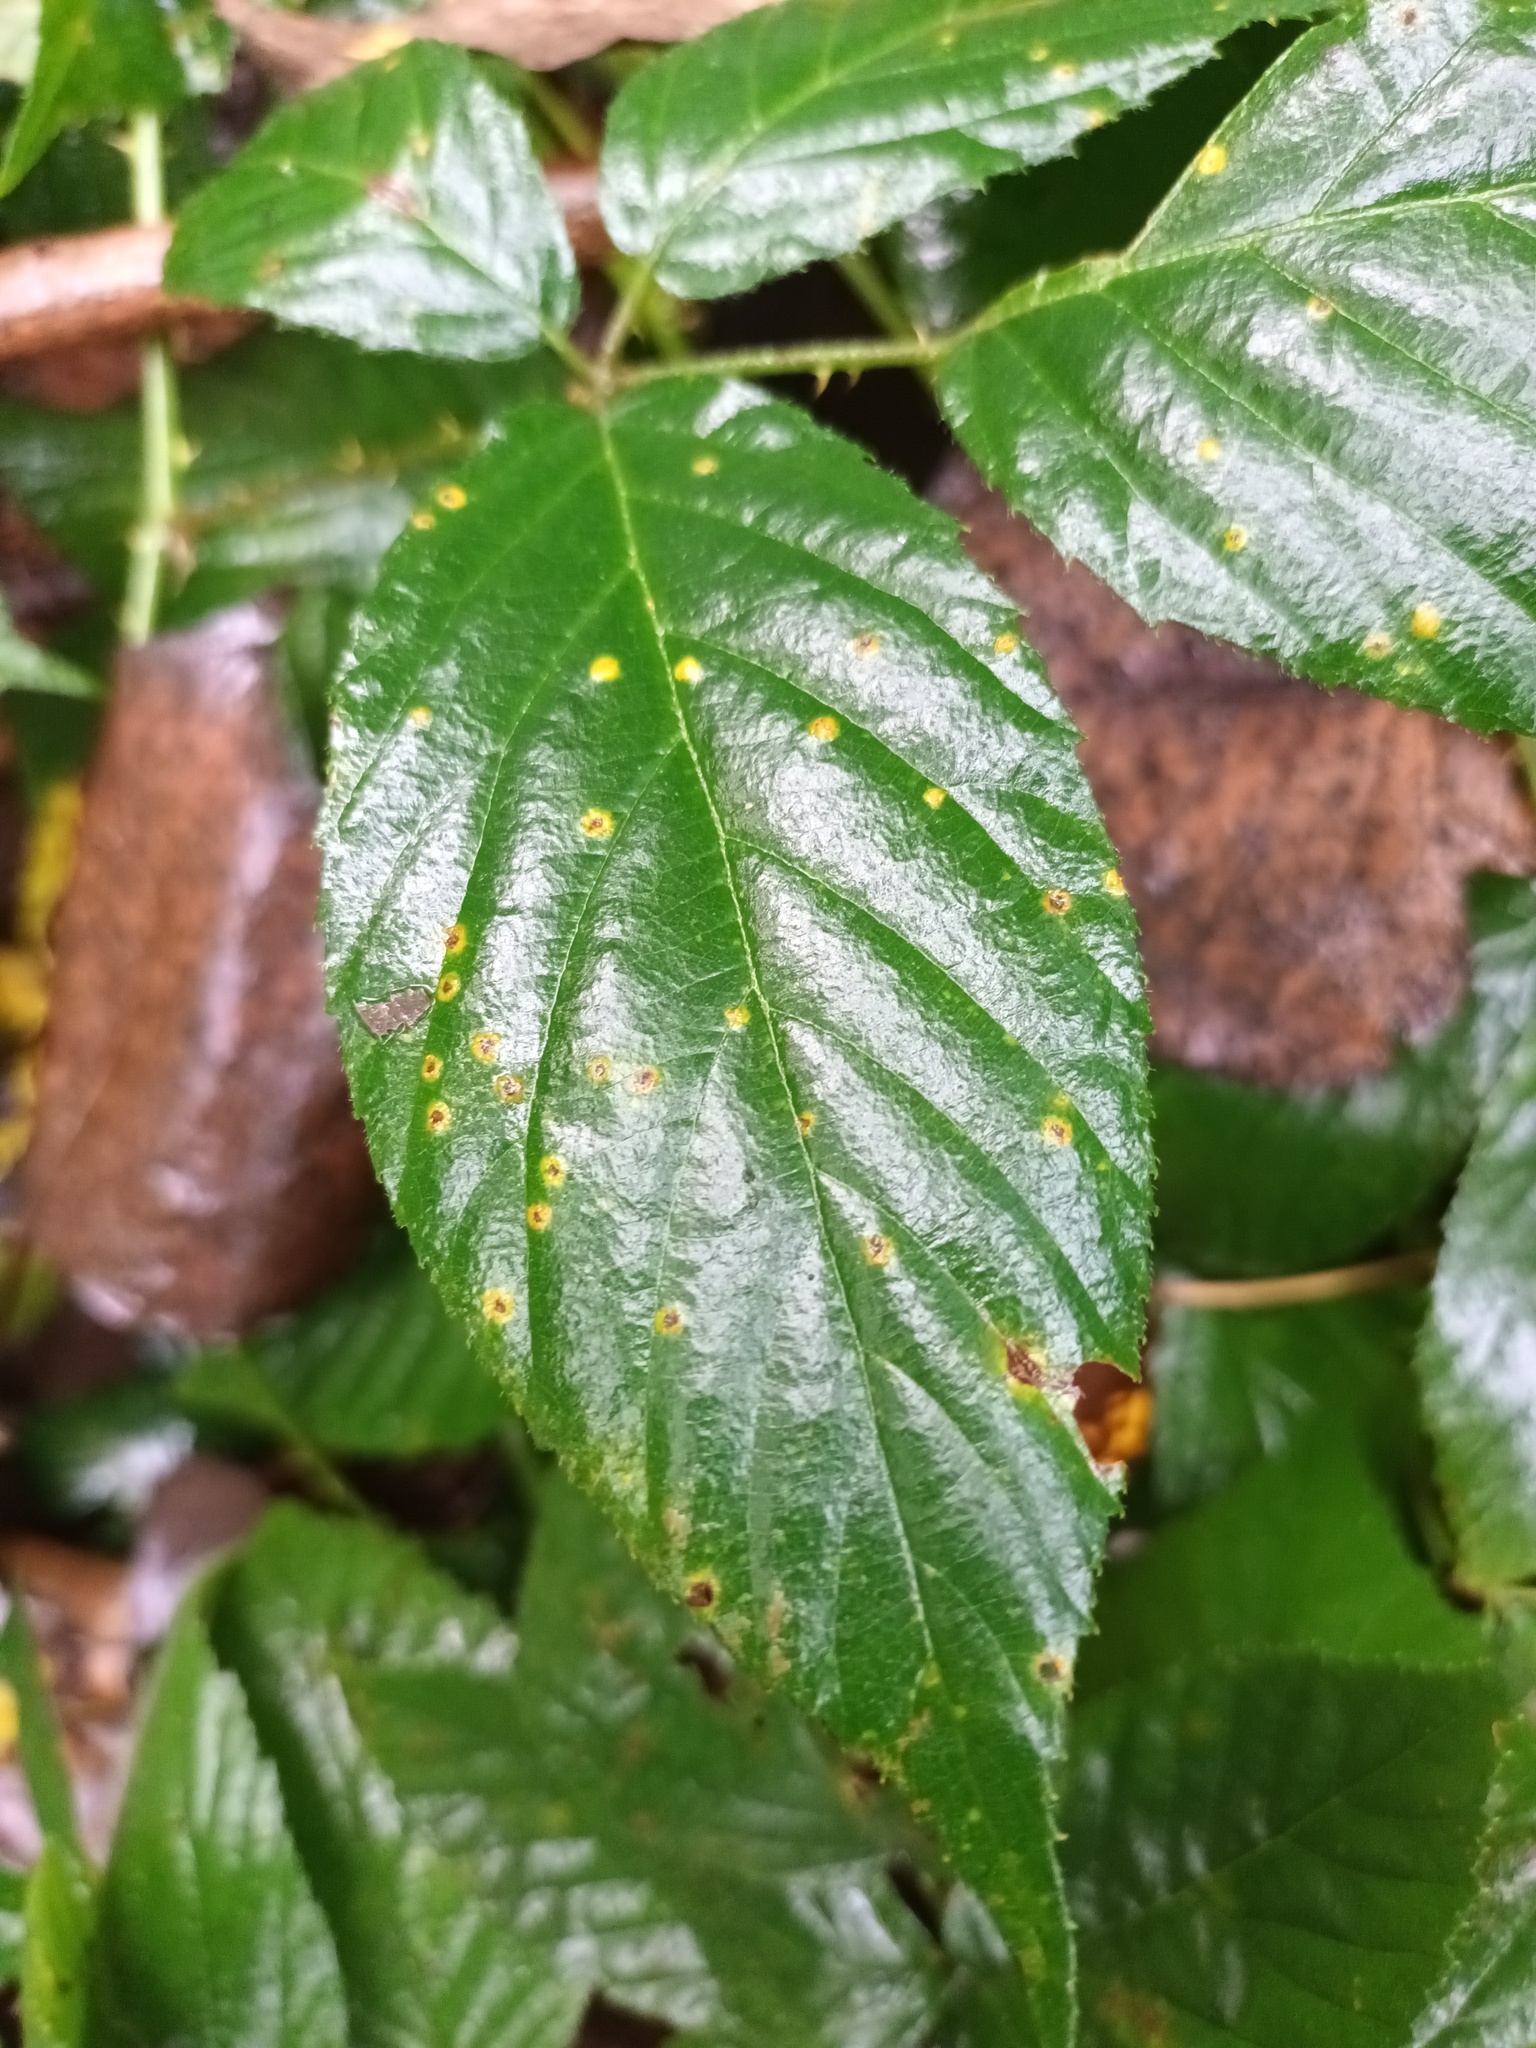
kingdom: Fungi
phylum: Basidiomycota
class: Pucciniomycetes
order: Pucciniales
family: Phragmidiaceae
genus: Kuehneola
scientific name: Kuehneola uredinis
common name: Bramble stem rust
